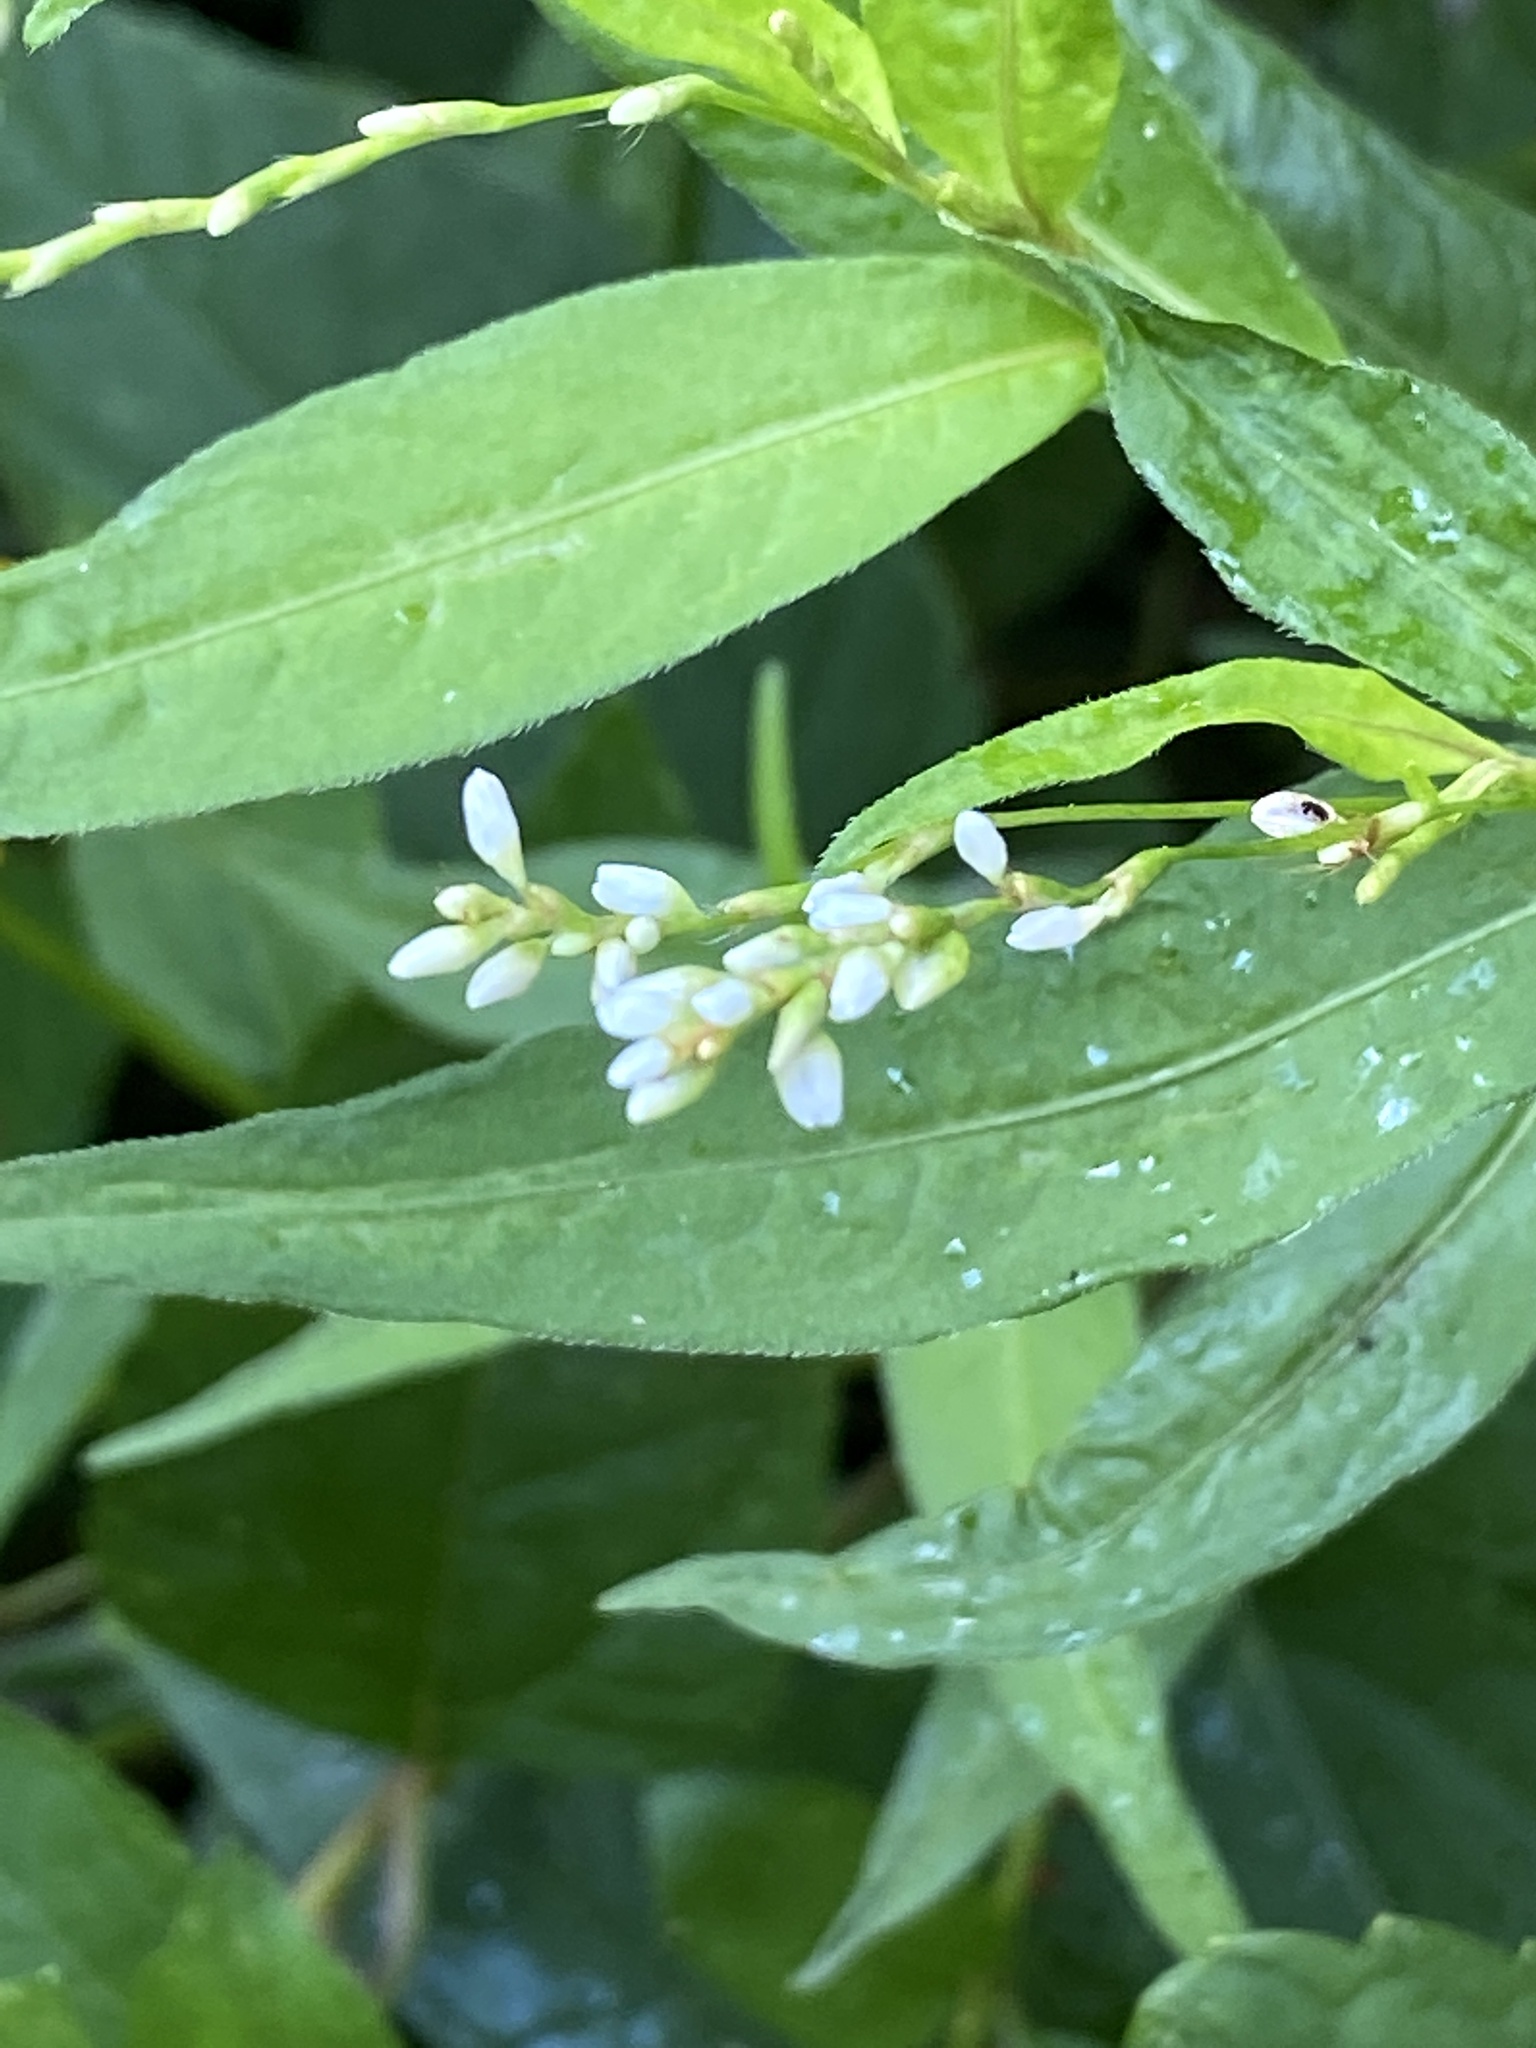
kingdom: Plantae
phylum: Tracheophyta
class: Magnoliopsida
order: Caryophyllales
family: Polygonaceae
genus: Persicaria
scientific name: Persicaria punctata
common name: Dotted smartweed
